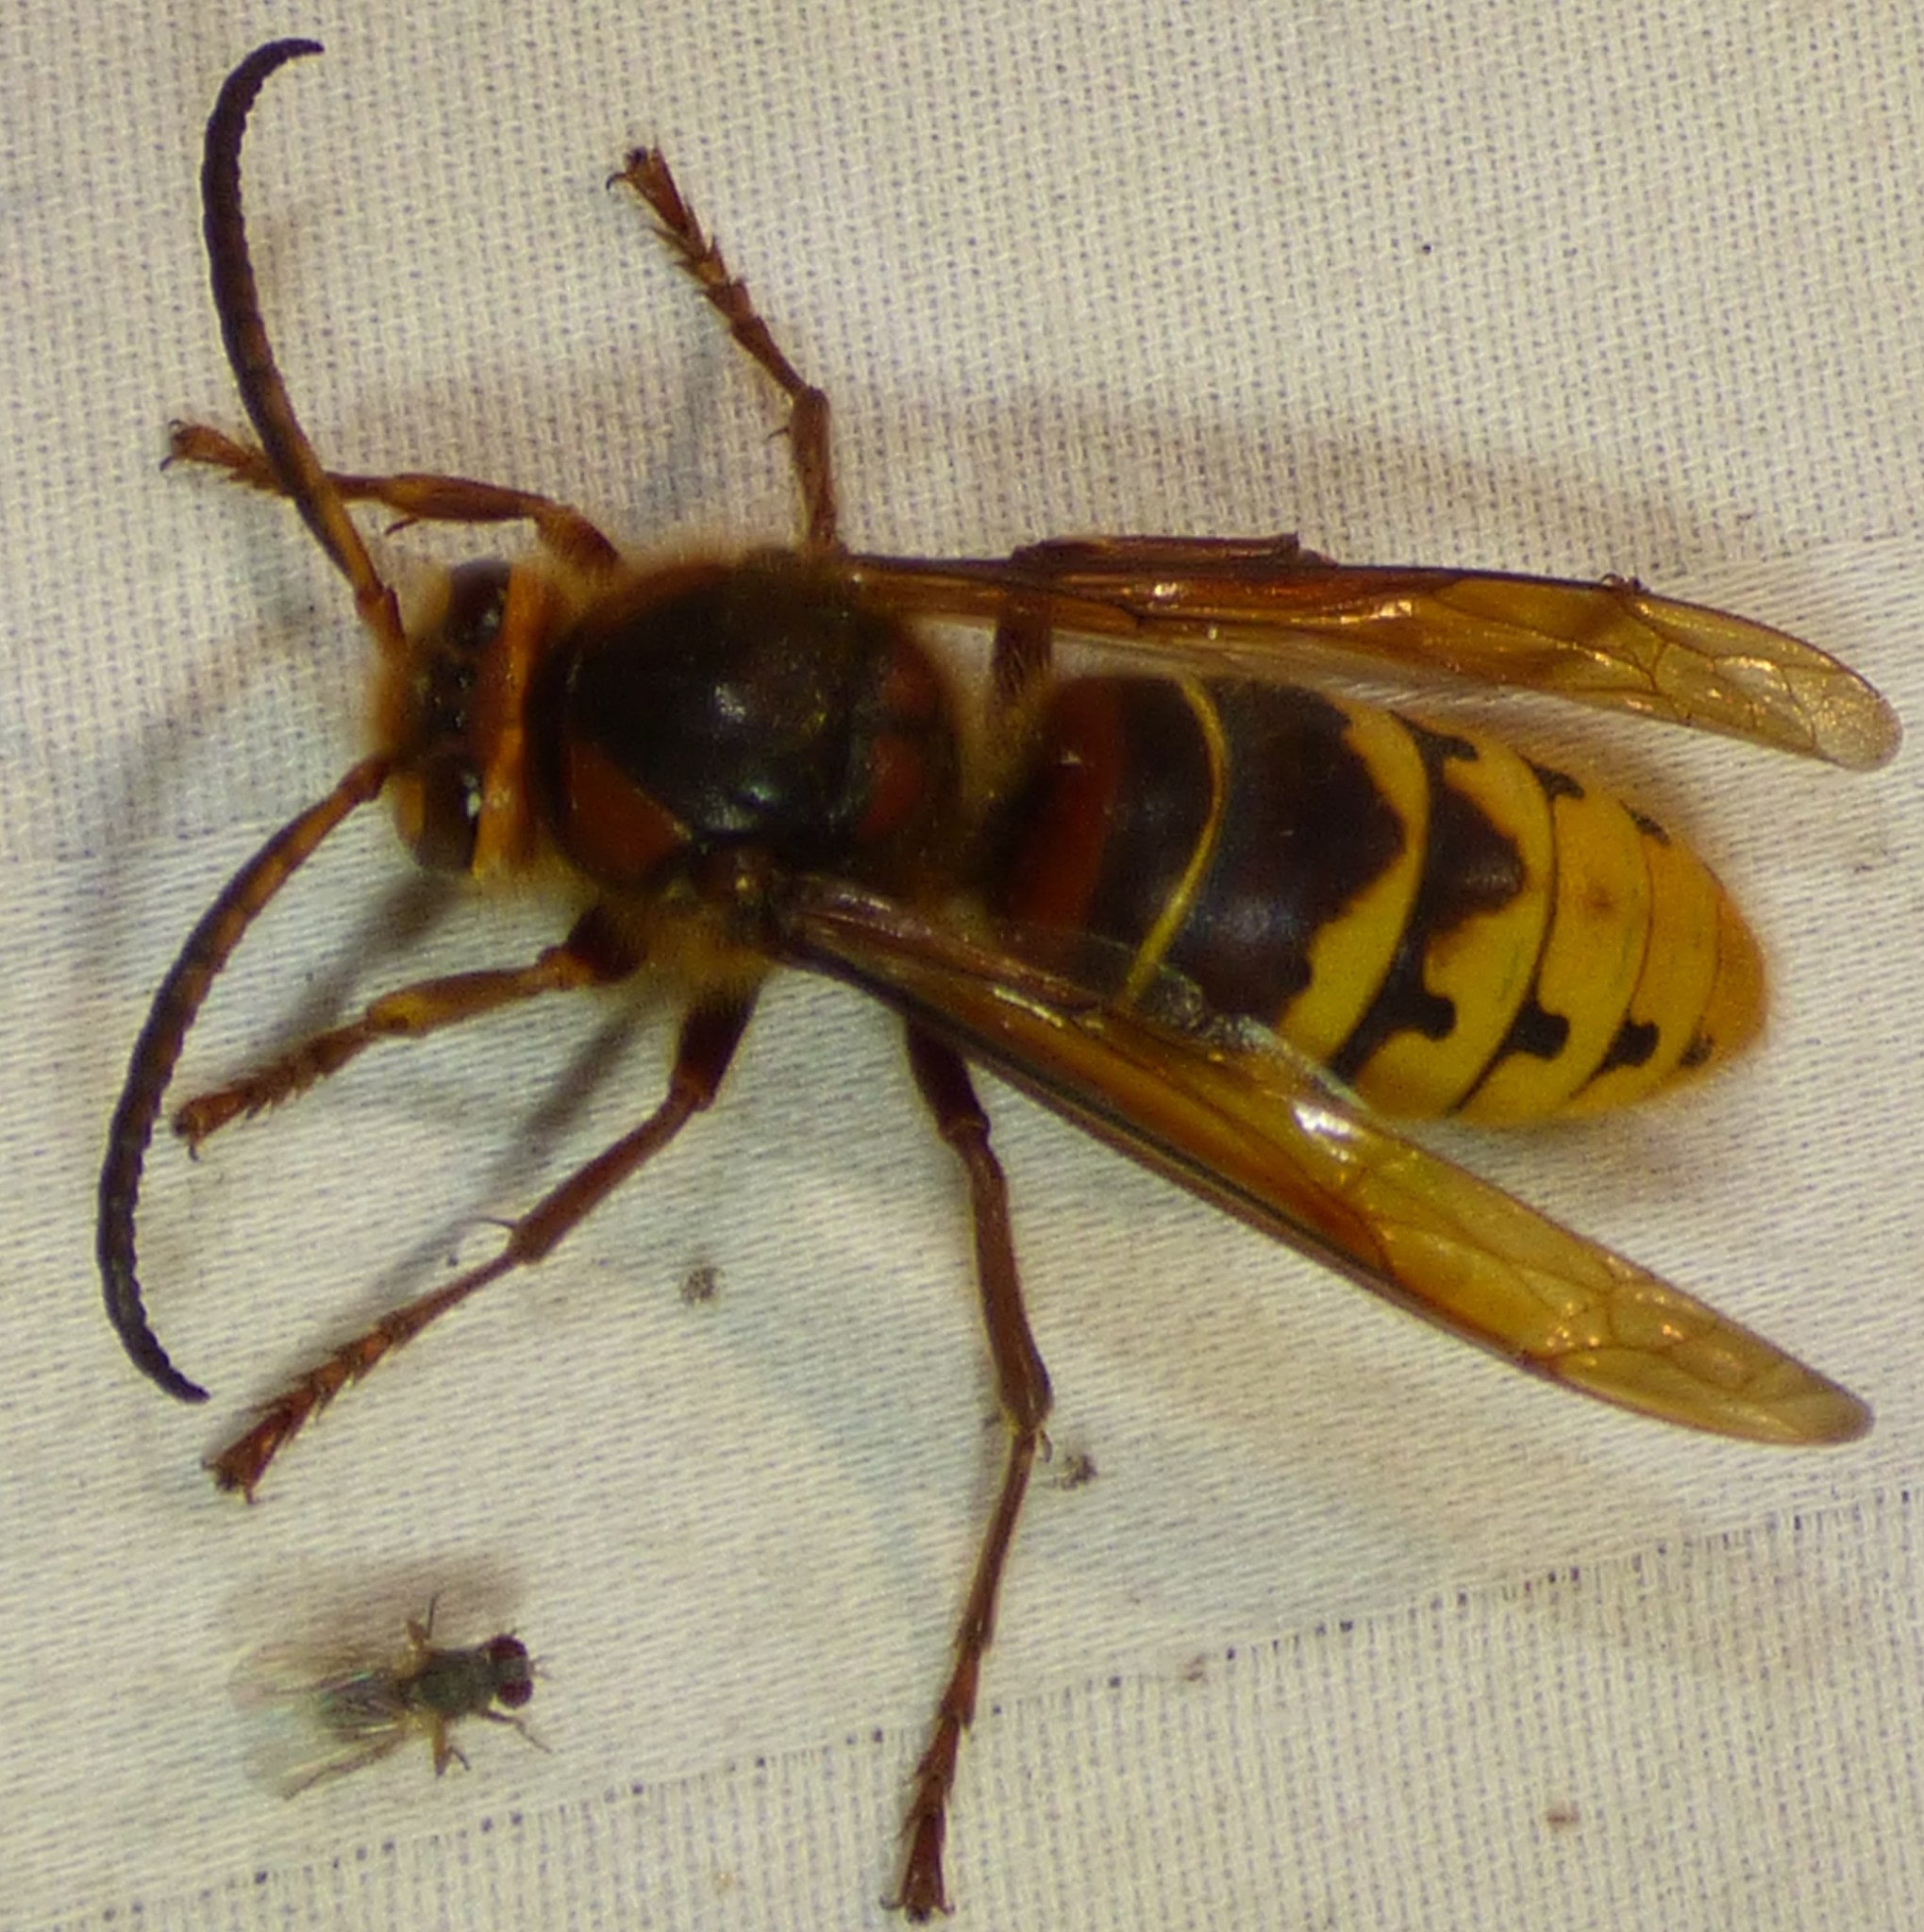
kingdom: Animalia
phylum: Arthropoda
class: Insecta
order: Hymenoptera
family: Vespidae
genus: Vespa
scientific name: Vespa crabro
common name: Hornet
